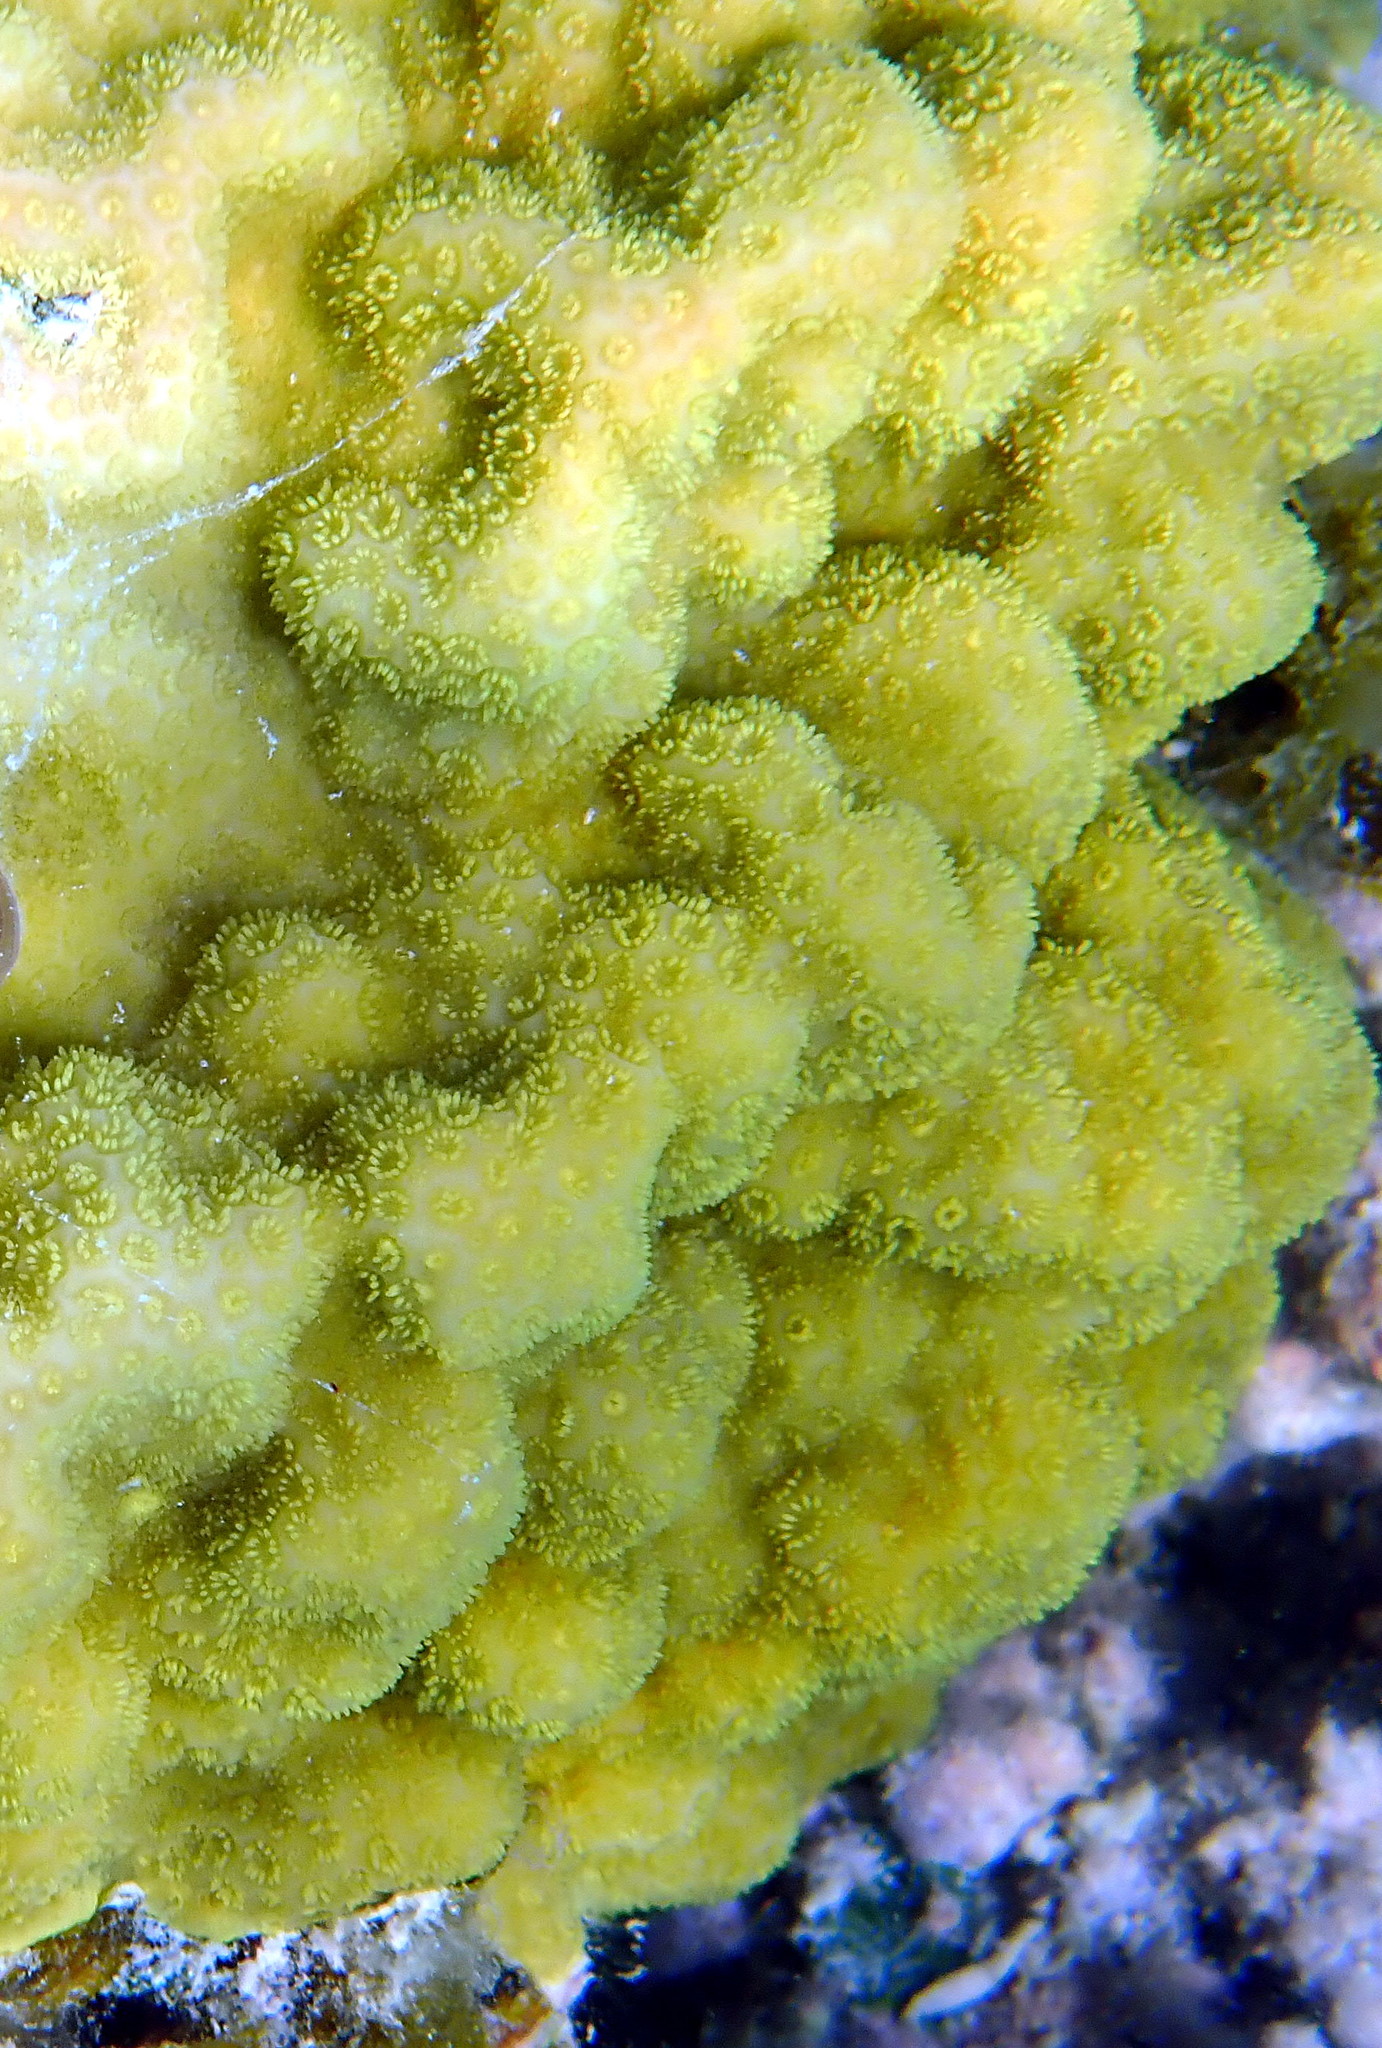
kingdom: Animalia
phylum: Cnidaria
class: Anthozoa
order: Scleractinia
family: Poritidae
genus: Porites
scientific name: Porites astreoides
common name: Mustard hill coral
